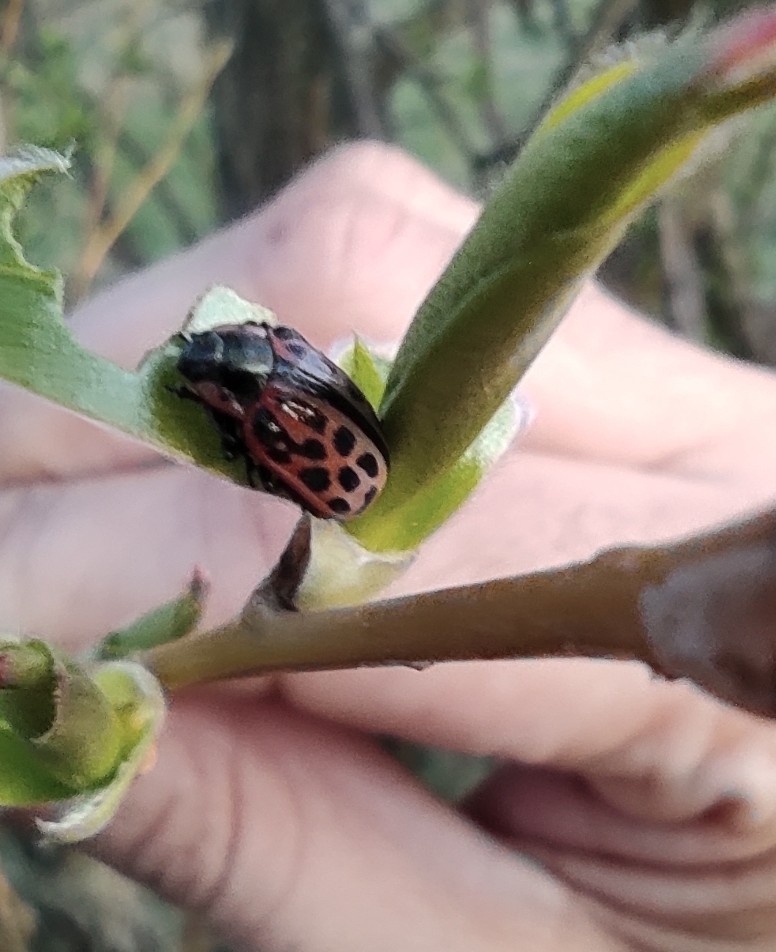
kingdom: Animalia
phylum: Arthropoda
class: Insecta
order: Coleoptera
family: Chrysomelidae
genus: Chrysomela
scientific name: Chrysomela vigintipunctata
